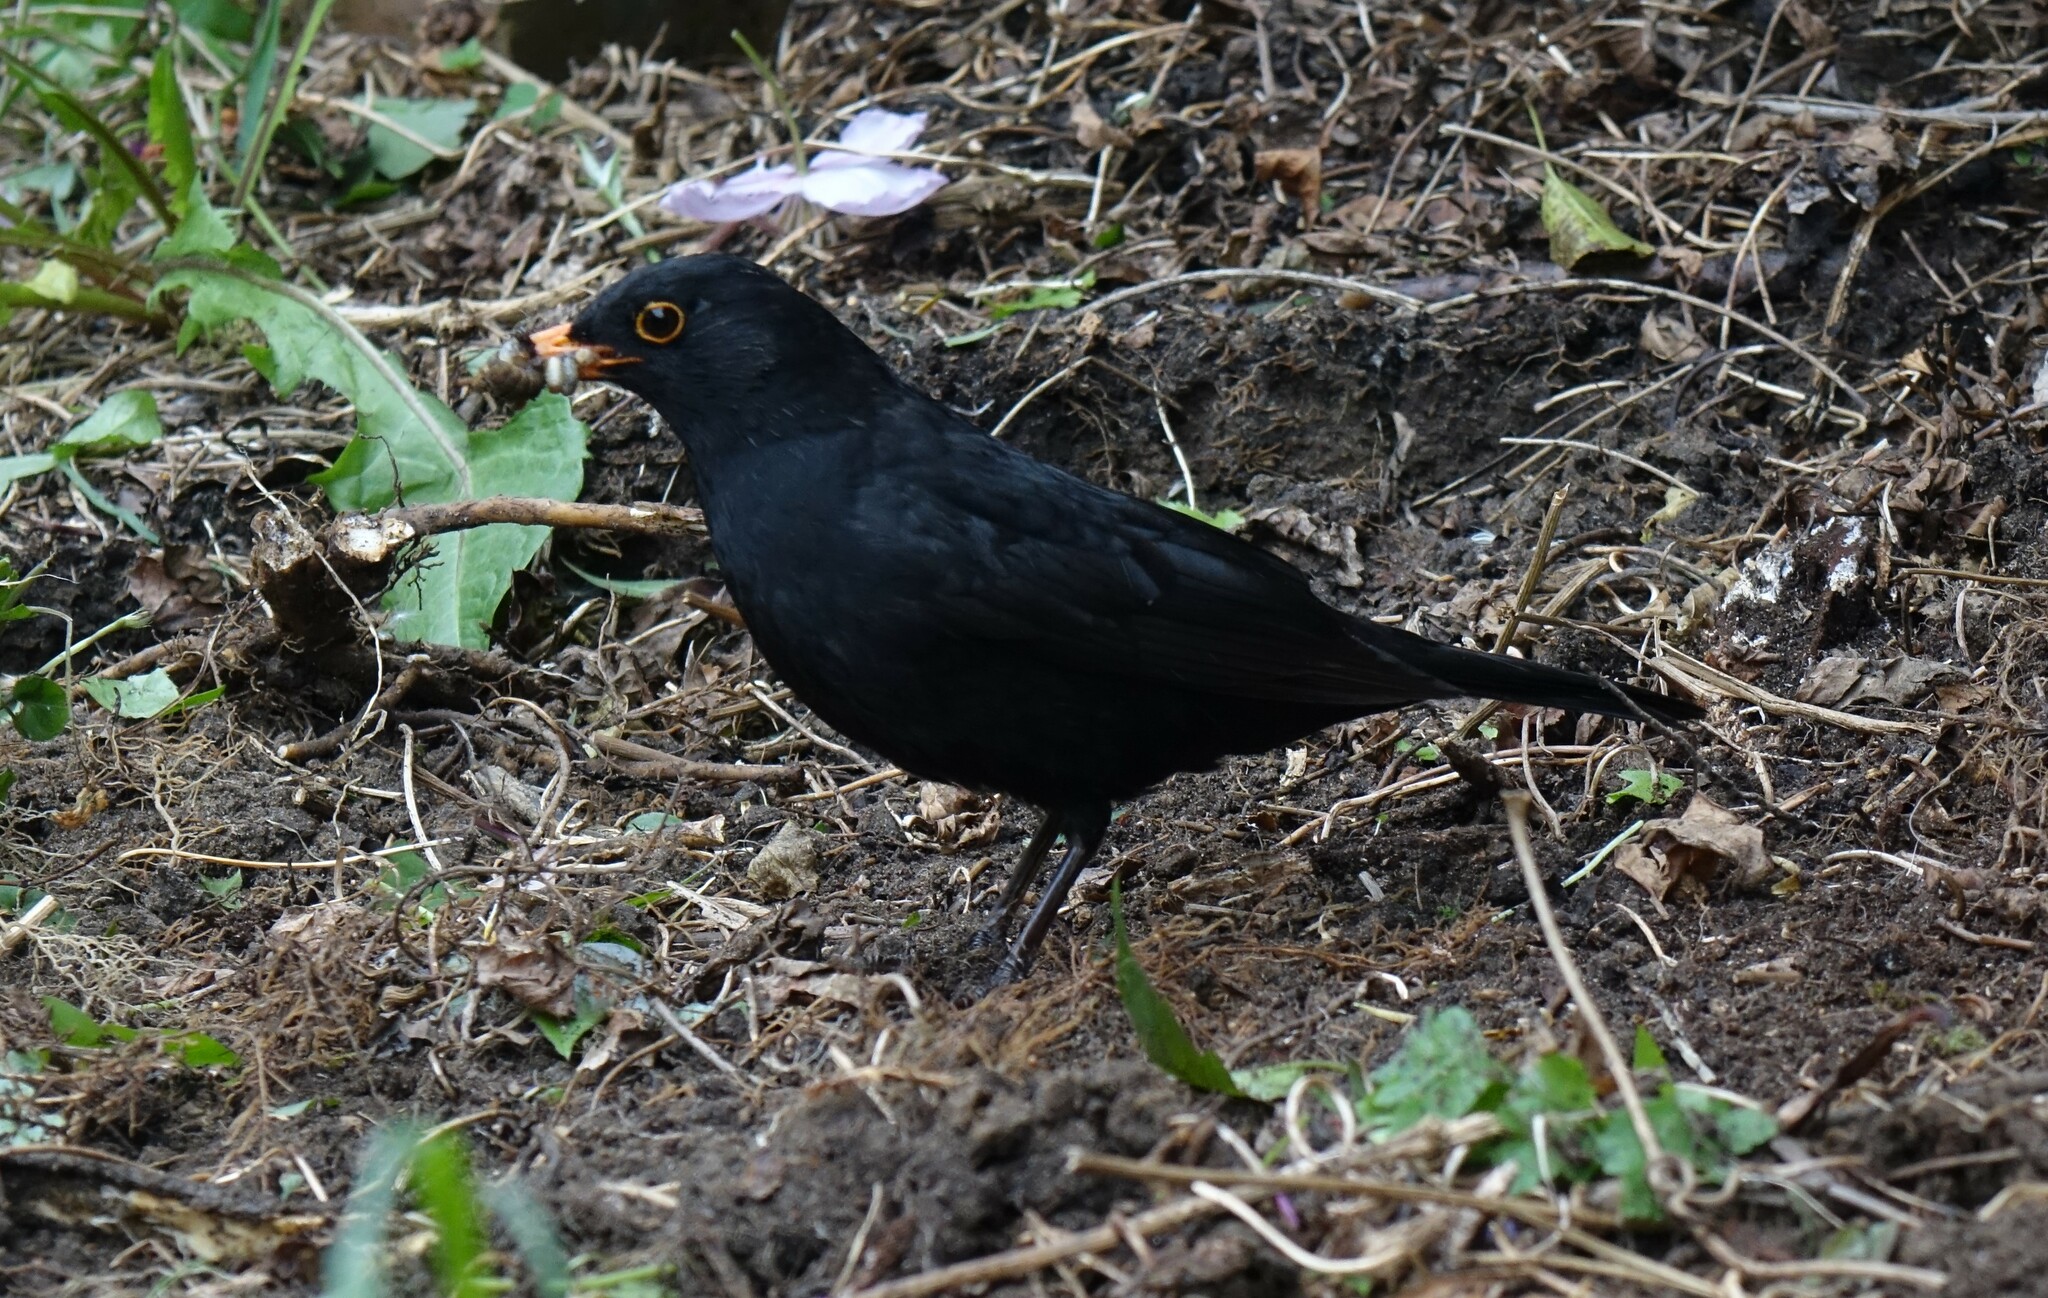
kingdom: Animalia
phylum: Chordata
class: Aves
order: Passeriformes
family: Turdidae
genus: Turdus
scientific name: Turdus merula
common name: Common blackbird
